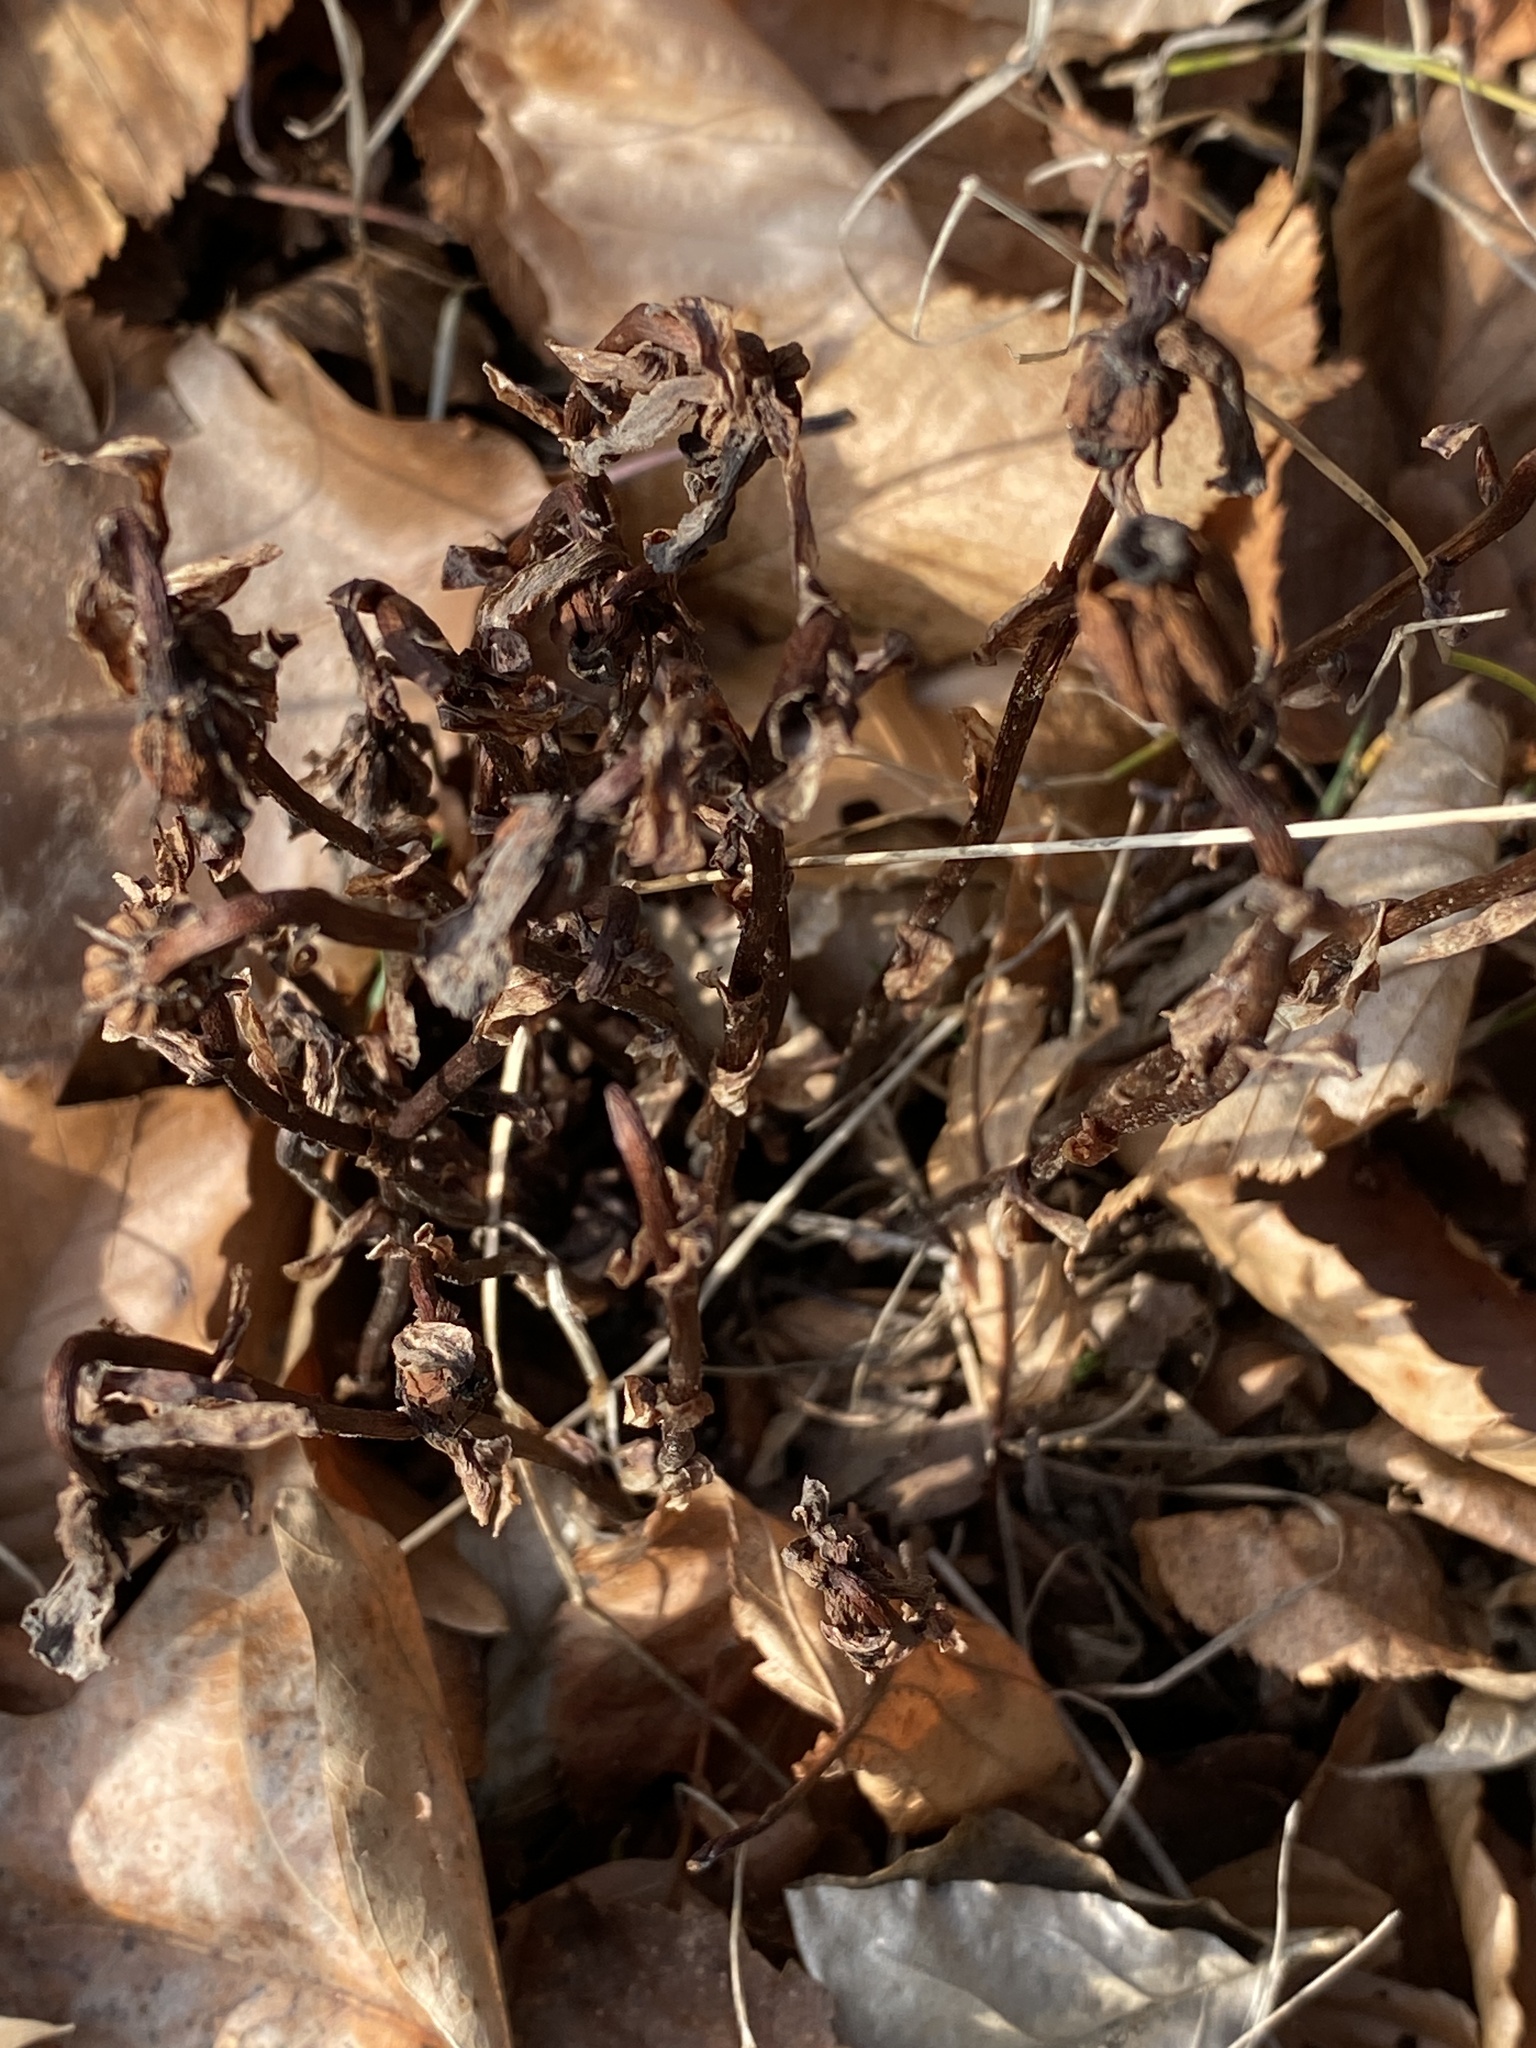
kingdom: Plantae
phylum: Tracheophyta
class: Magnoliopsida
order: Ericales
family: Ericaceae
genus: Monotropa
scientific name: Monotropa uniflora
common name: Convulsion root
